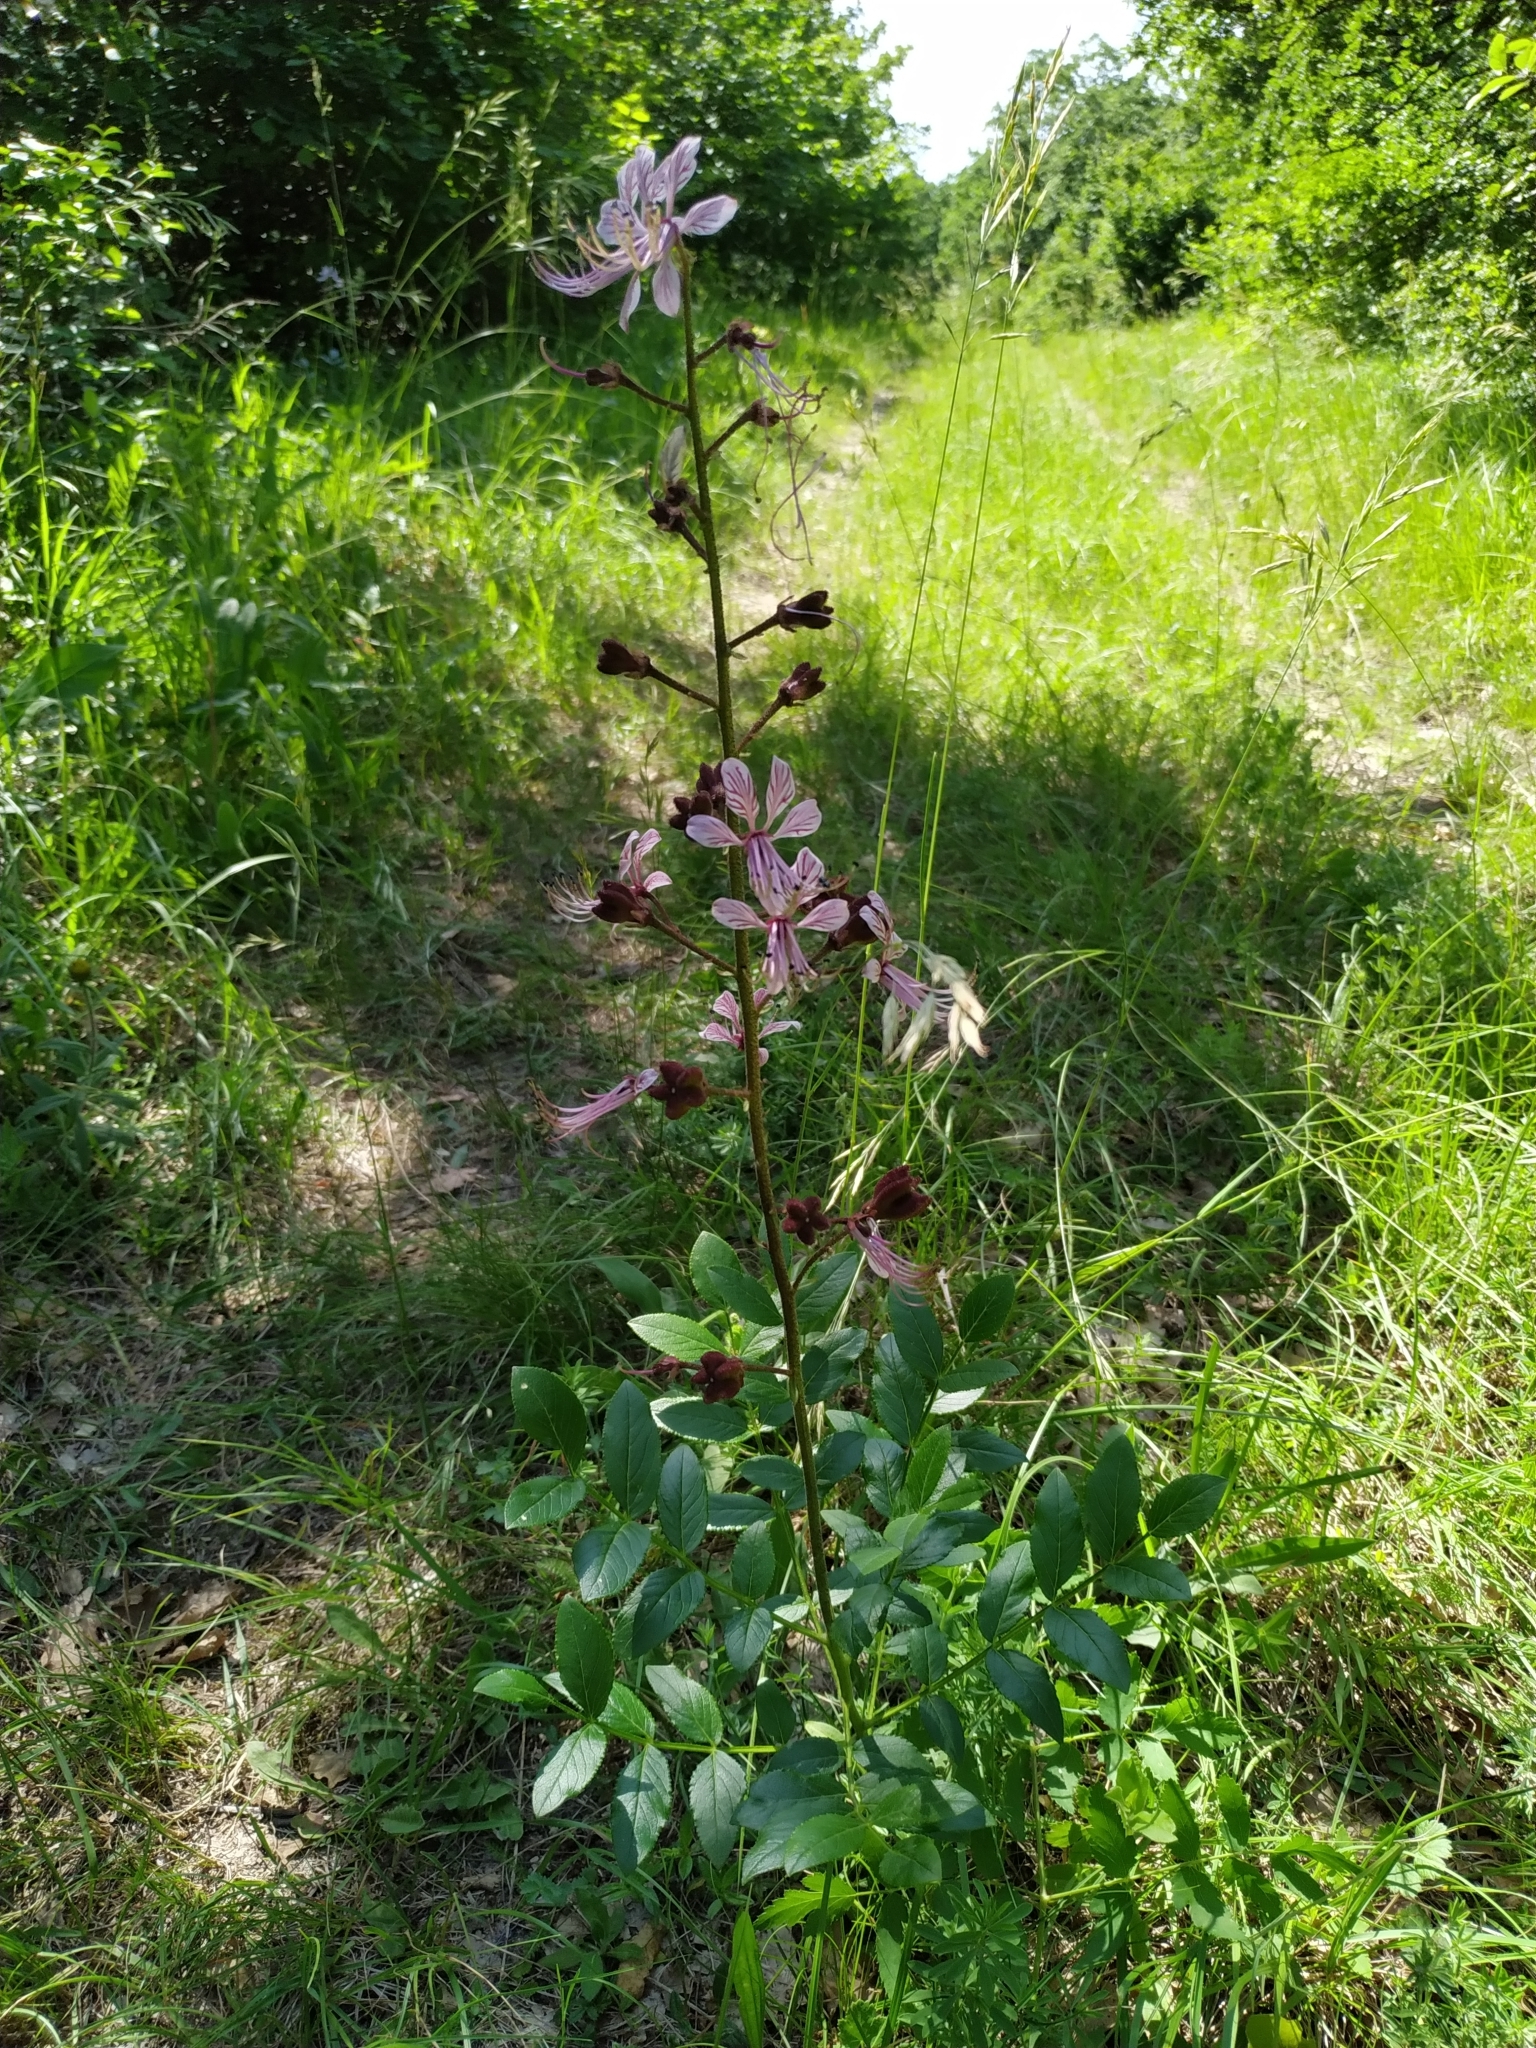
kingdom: Plantae
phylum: Tracheophyta
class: Magnoliopsida
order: Sapindales
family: Rutaceae
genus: Dictamnus
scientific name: Dictamnus albus
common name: Gasplant
